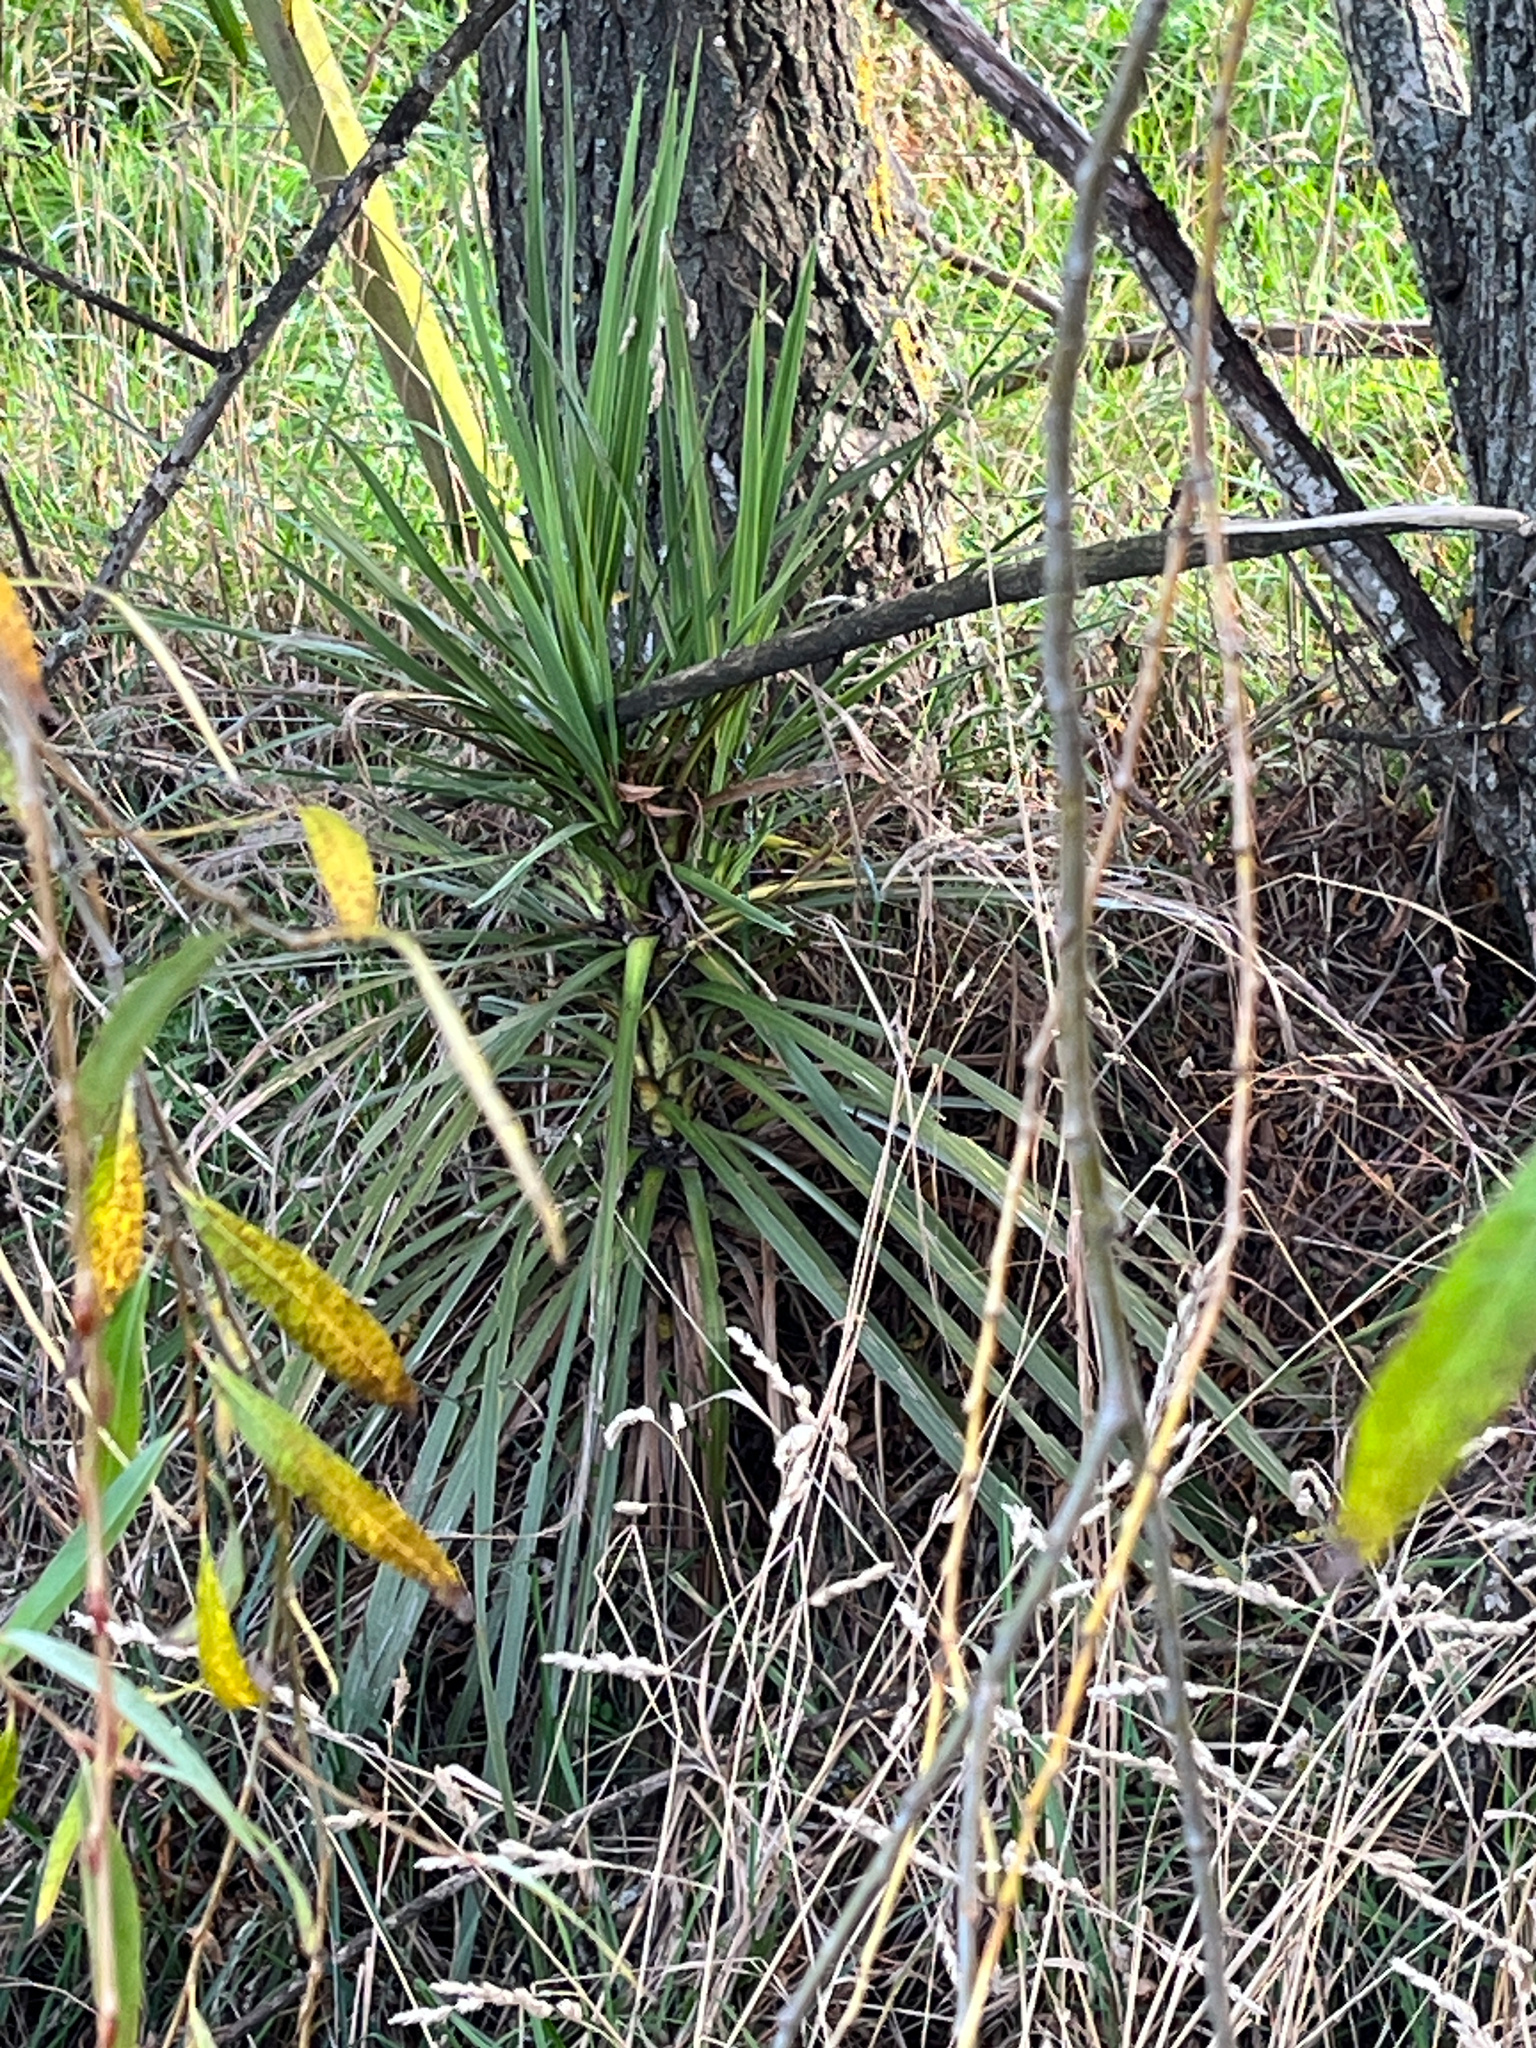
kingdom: Plantae
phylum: Tracheophyta
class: Liliopsida
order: Asparagales
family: Asparagaceae
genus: Cordyline
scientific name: Cordyline australis
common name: Cabbage-palm
